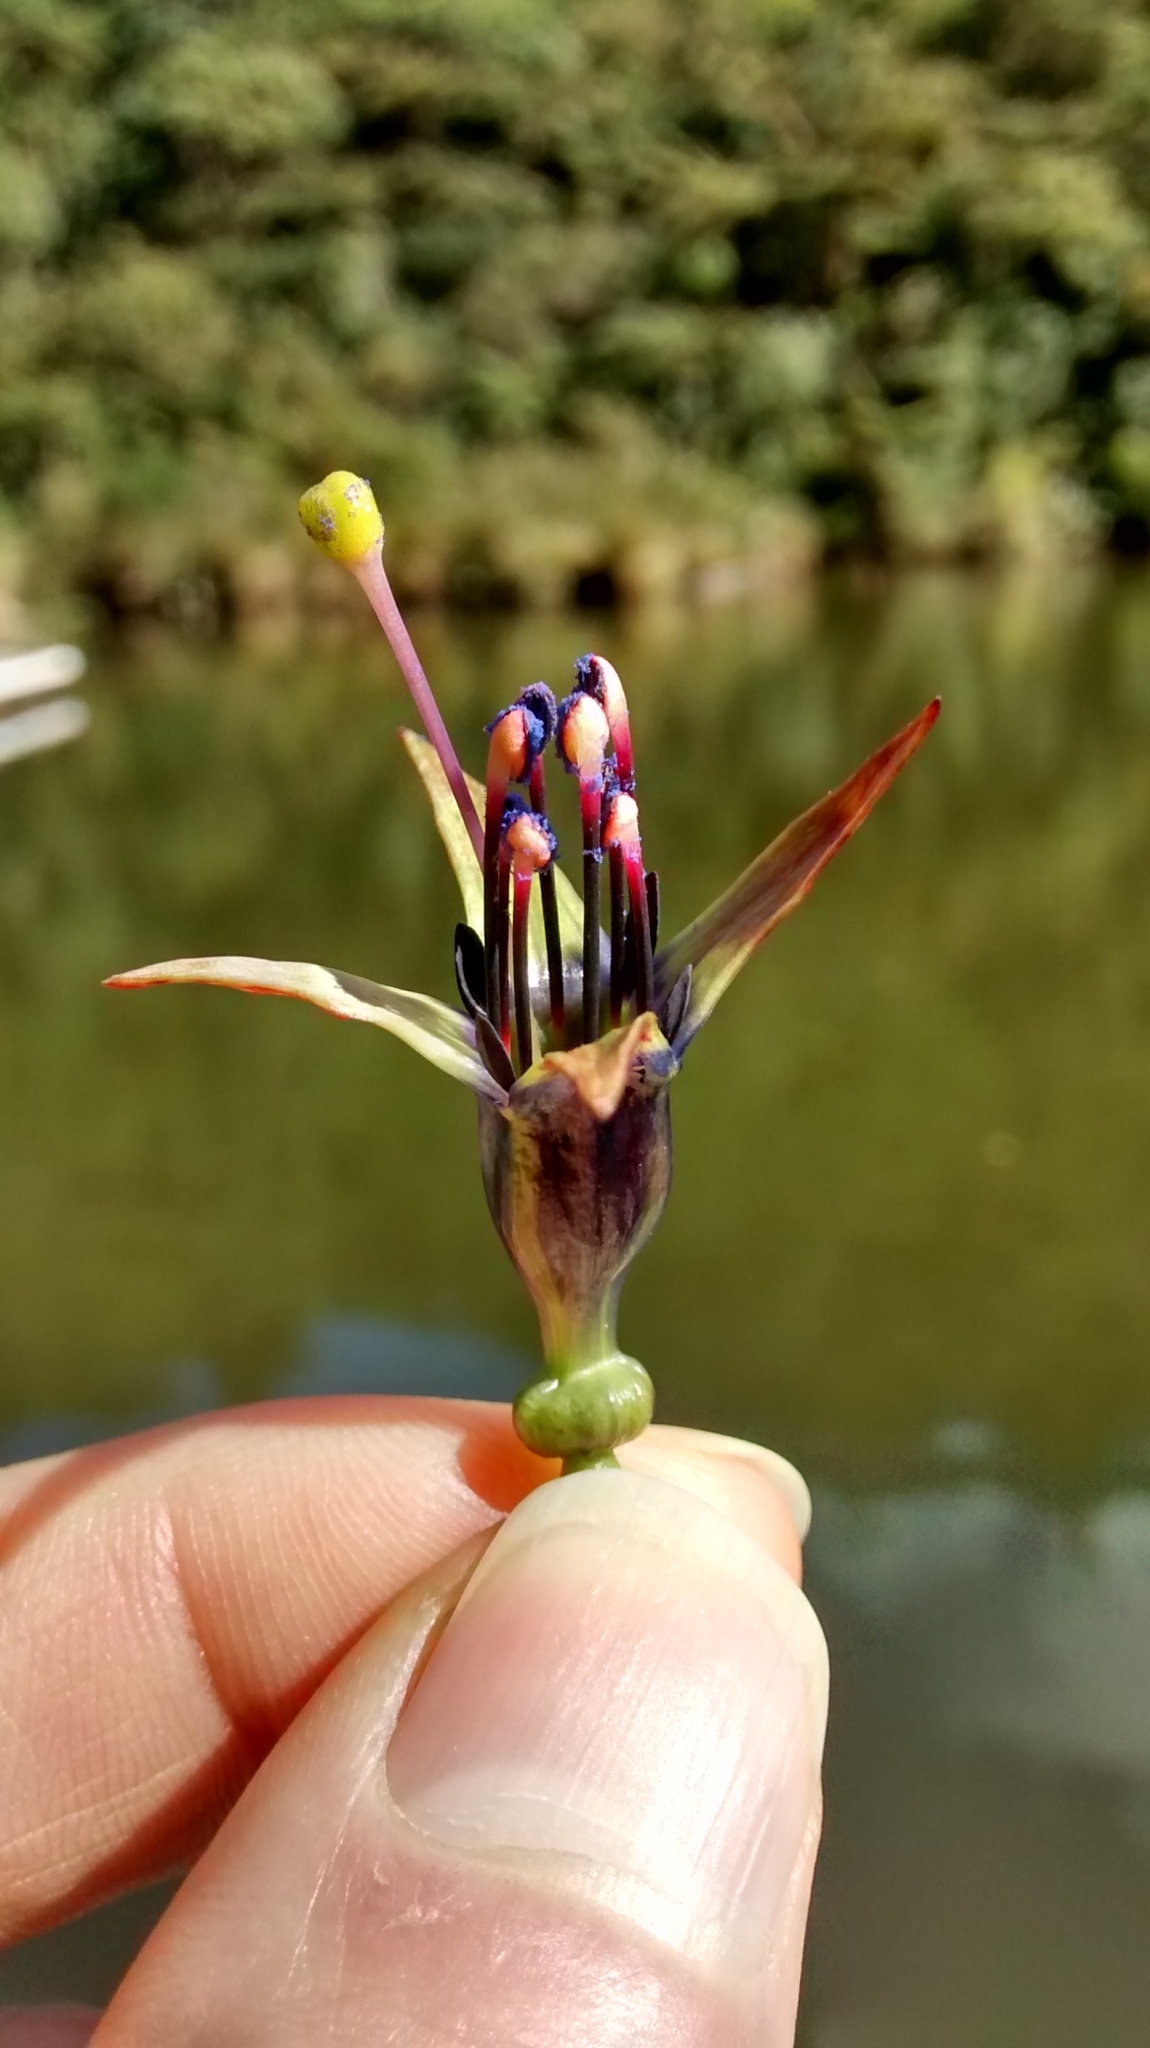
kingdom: Plantae
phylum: Tracheophyta
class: Magnoliopsida
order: Myrtales
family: Onagraceae
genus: Fuchsia
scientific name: Fuchsia excorticata
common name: Tree fuchsia
